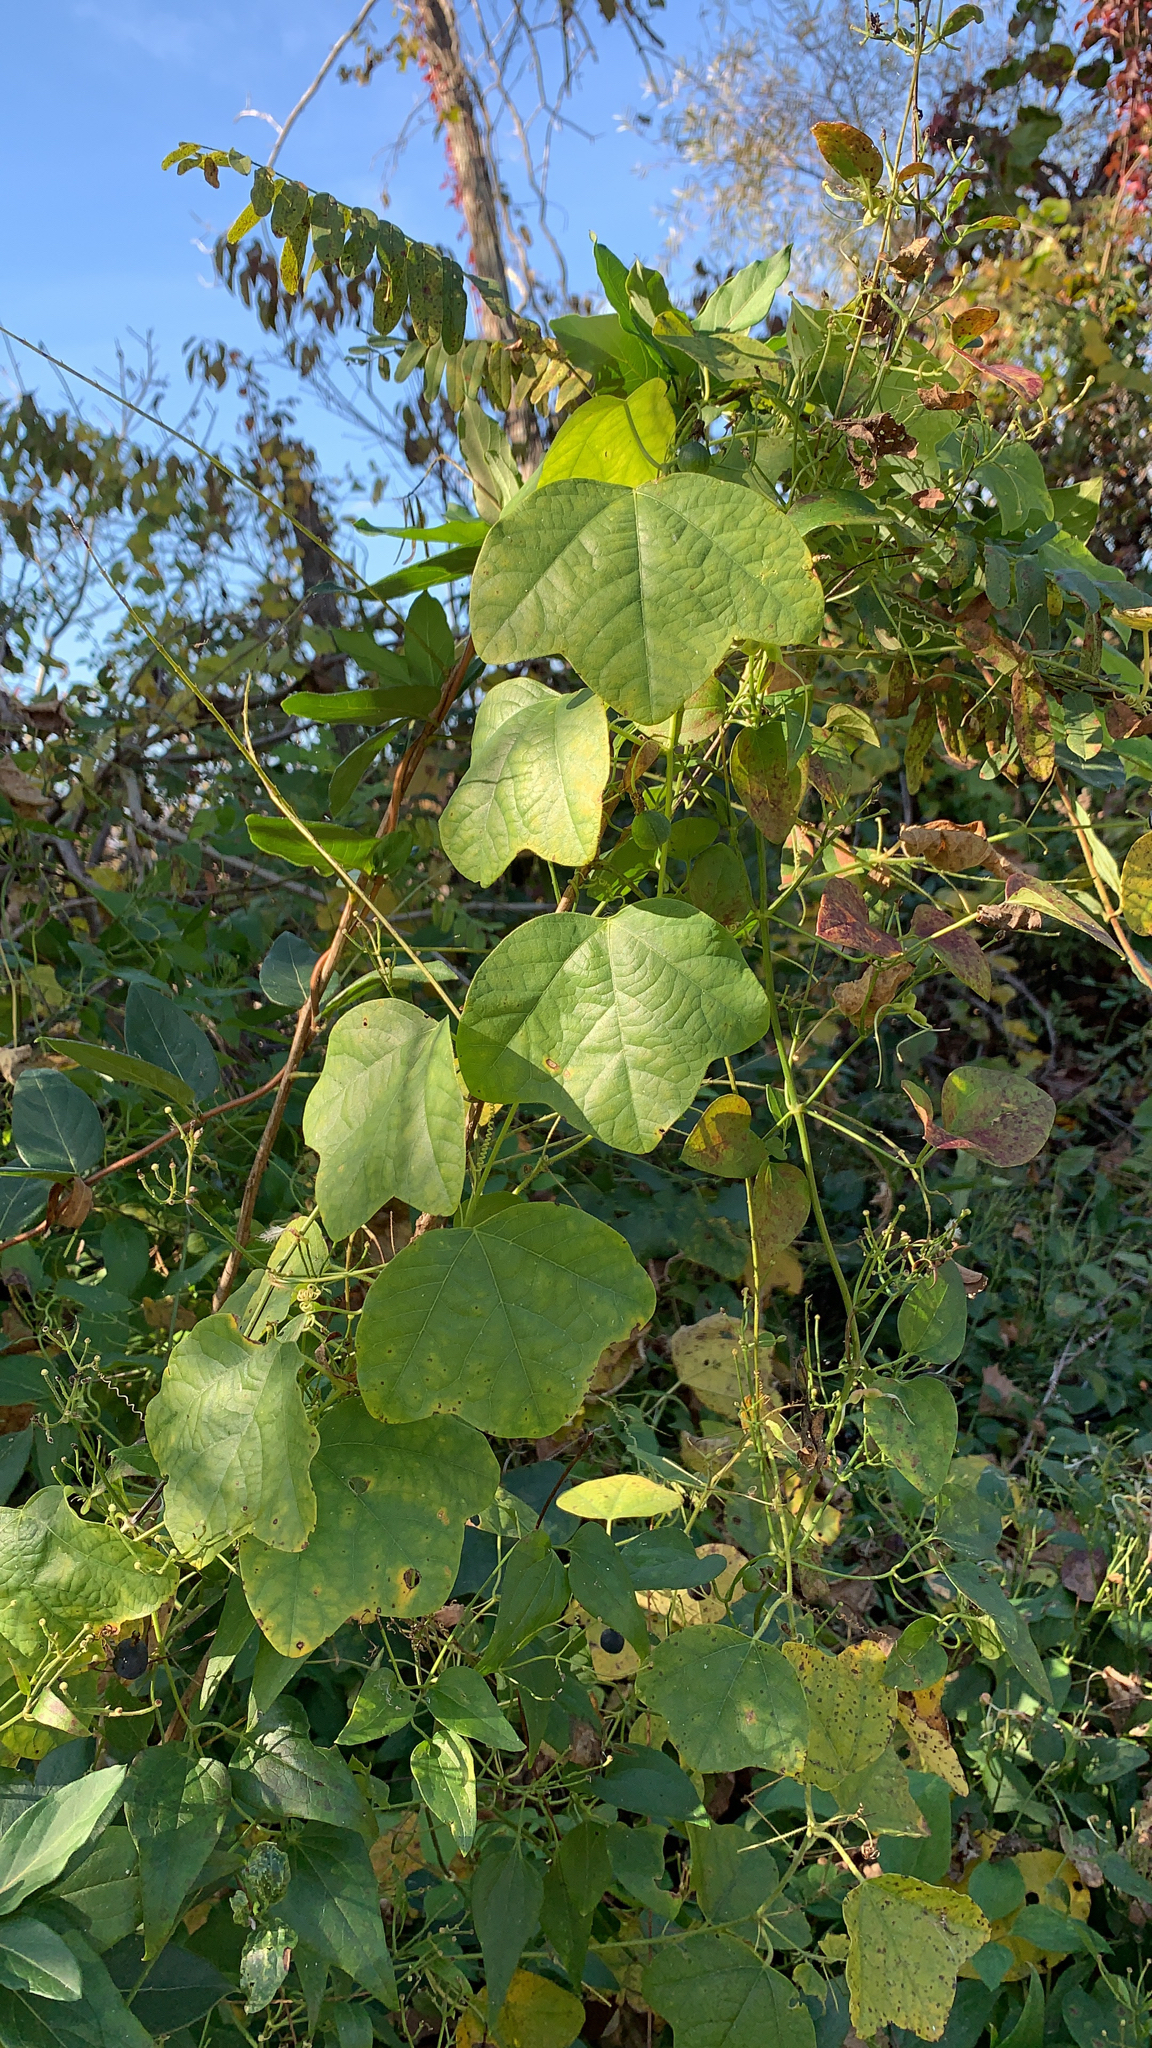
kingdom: Plantae
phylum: Tracheophyta
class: Magnoliopsida
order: Malpighiales
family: Passifloraceae
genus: Passiflora
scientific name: Passiflora lutea
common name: Yellow passionflower
